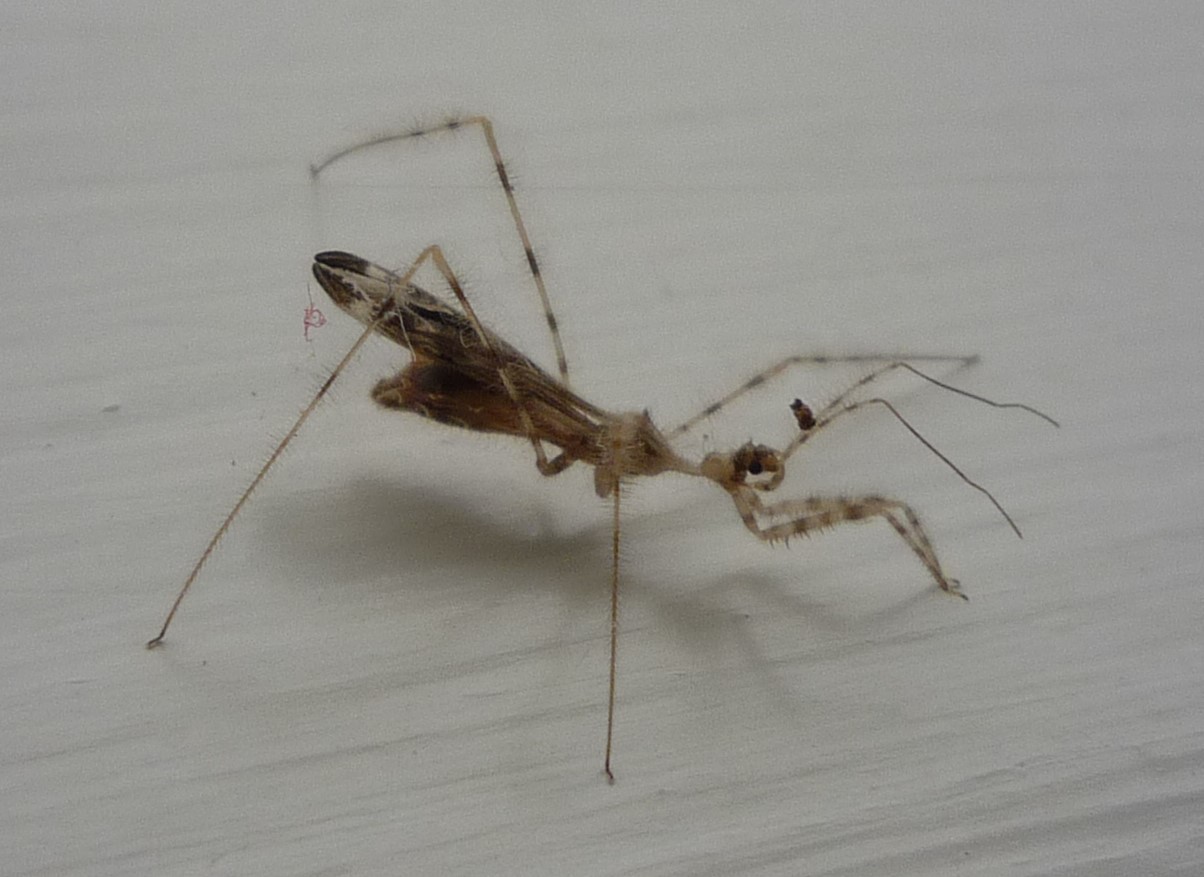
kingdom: Animalia
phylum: Arthropoda
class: Insecta
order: Hemiptera
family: Reduviidae
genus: Stenolemus
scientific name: Stenolemus fraterculus
